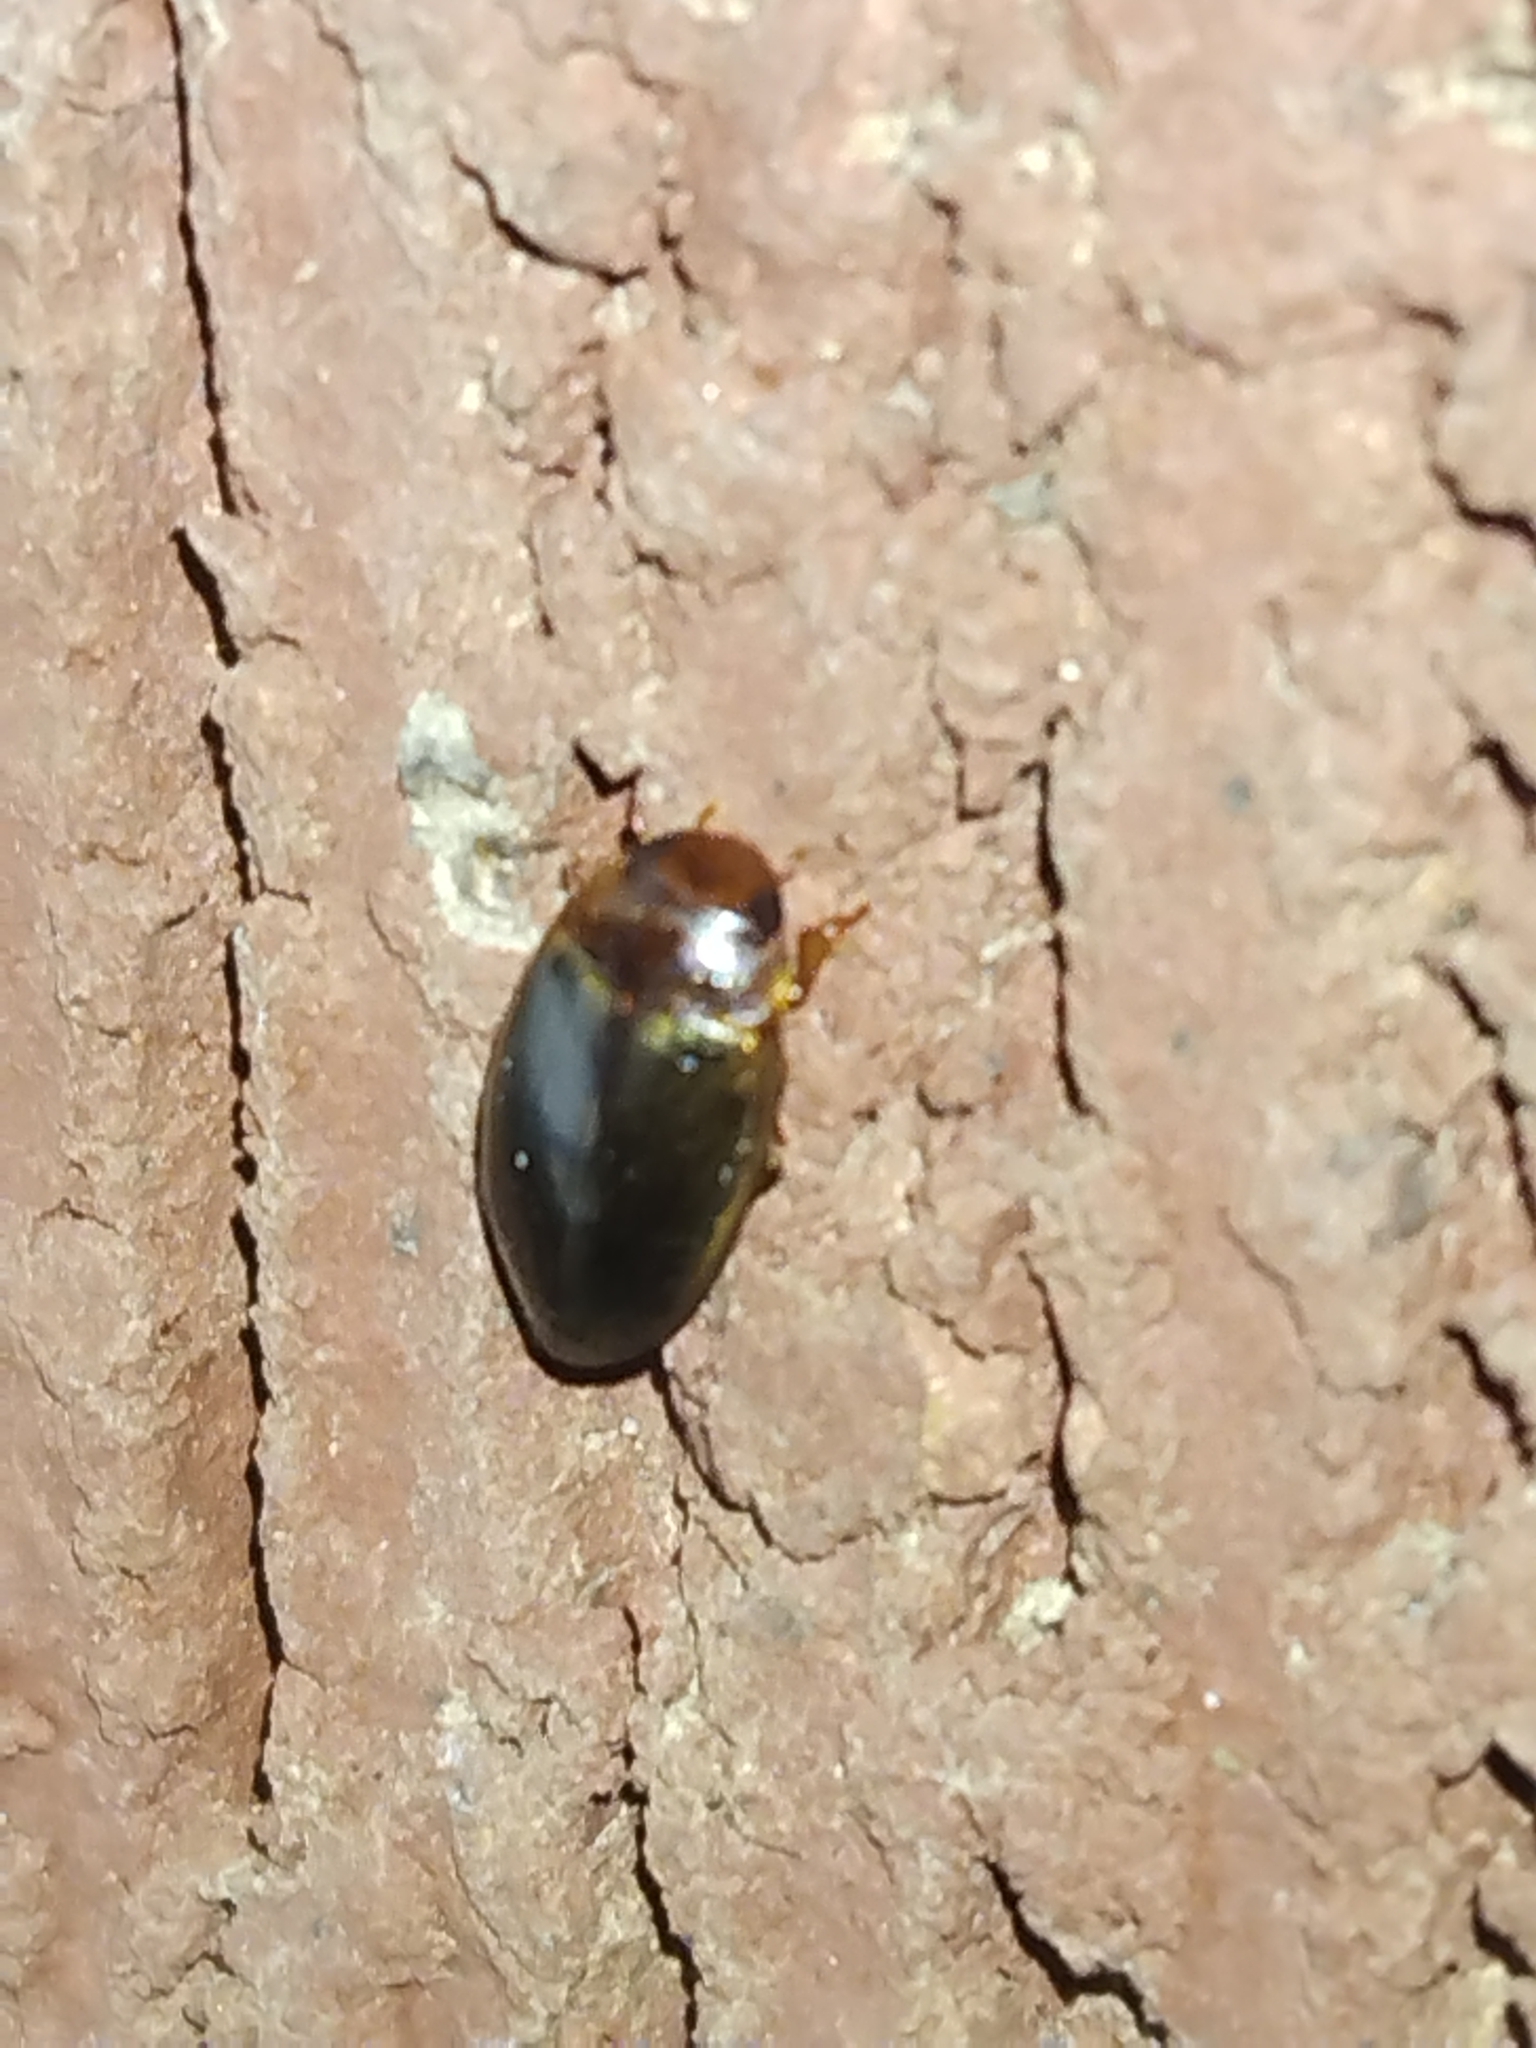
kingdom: Animalia
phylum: Arthropoda
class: Insecta
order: Coleoptera
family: Dytiscidae
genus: Copelatus
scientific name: Copelatus
